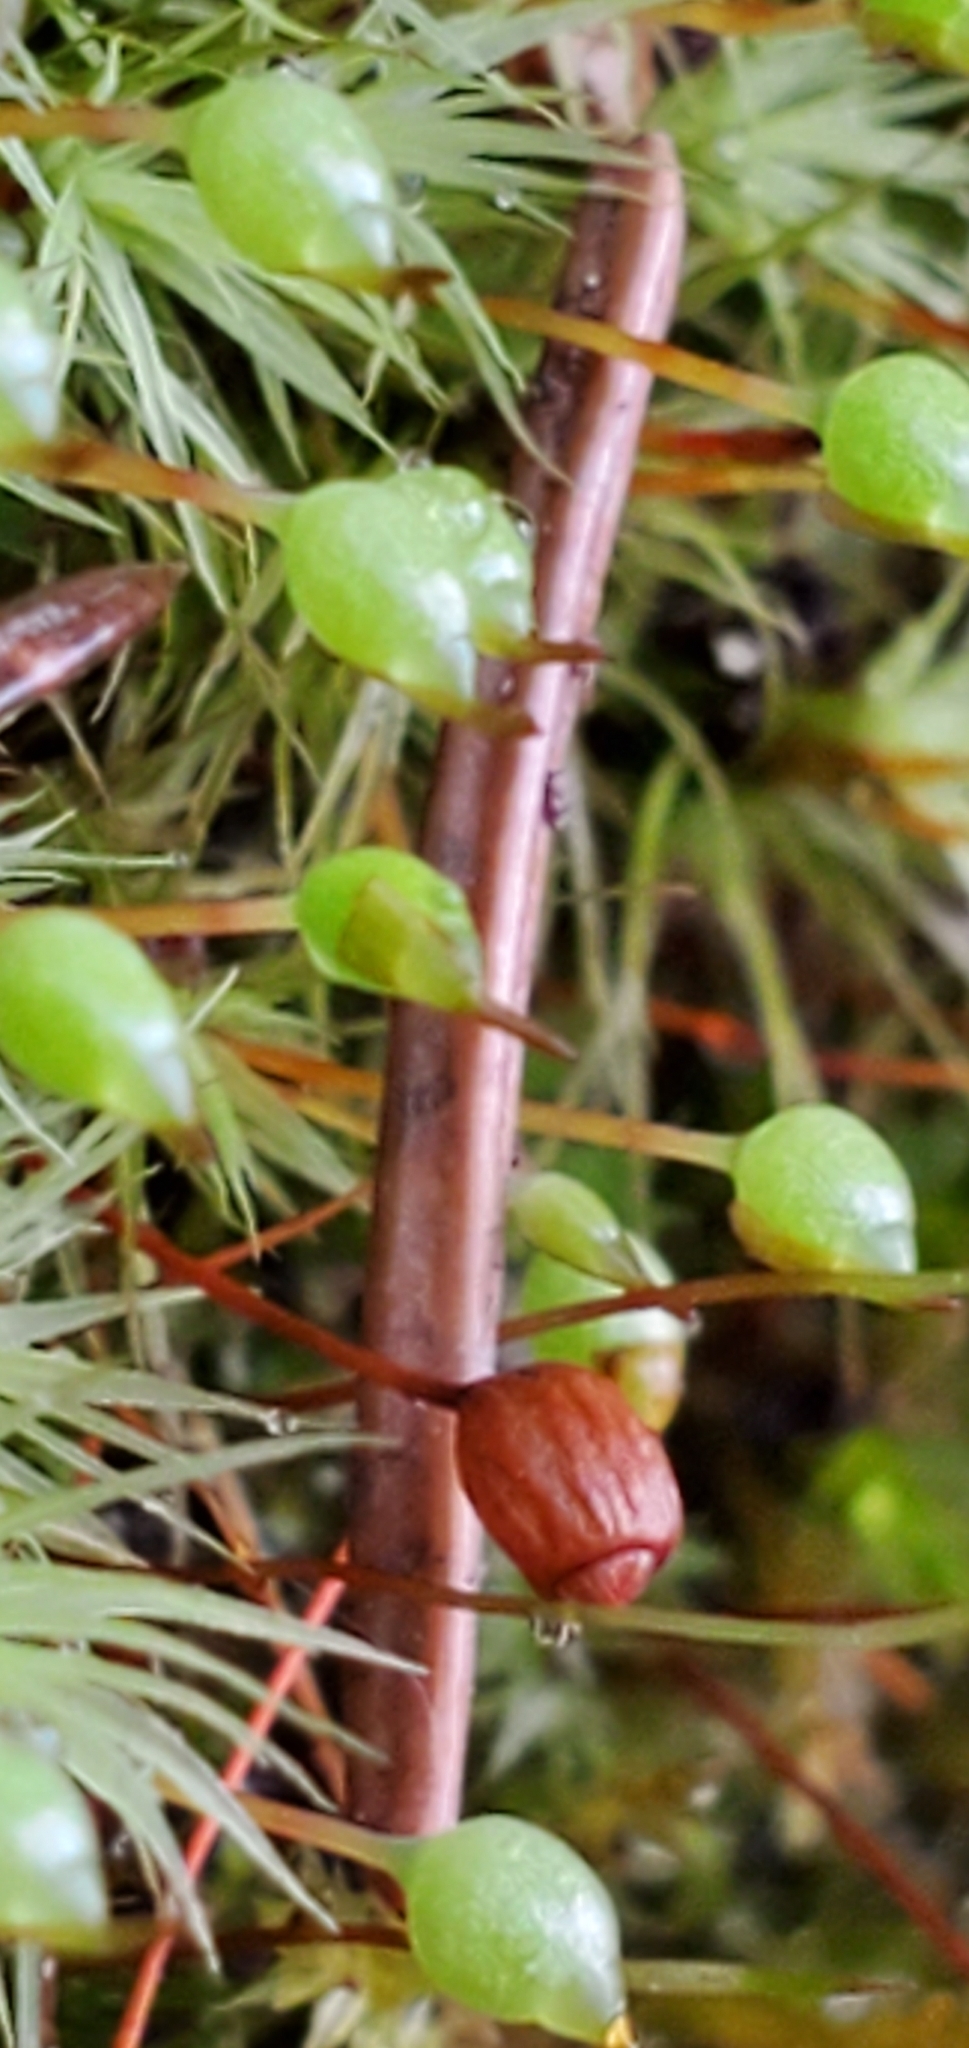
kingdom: Plantae
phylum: Bryophyta
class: Bryopsida
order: Bartramiales
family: Bartramiaceae
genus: Bartramia
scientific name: Bartramia ithyphylla
